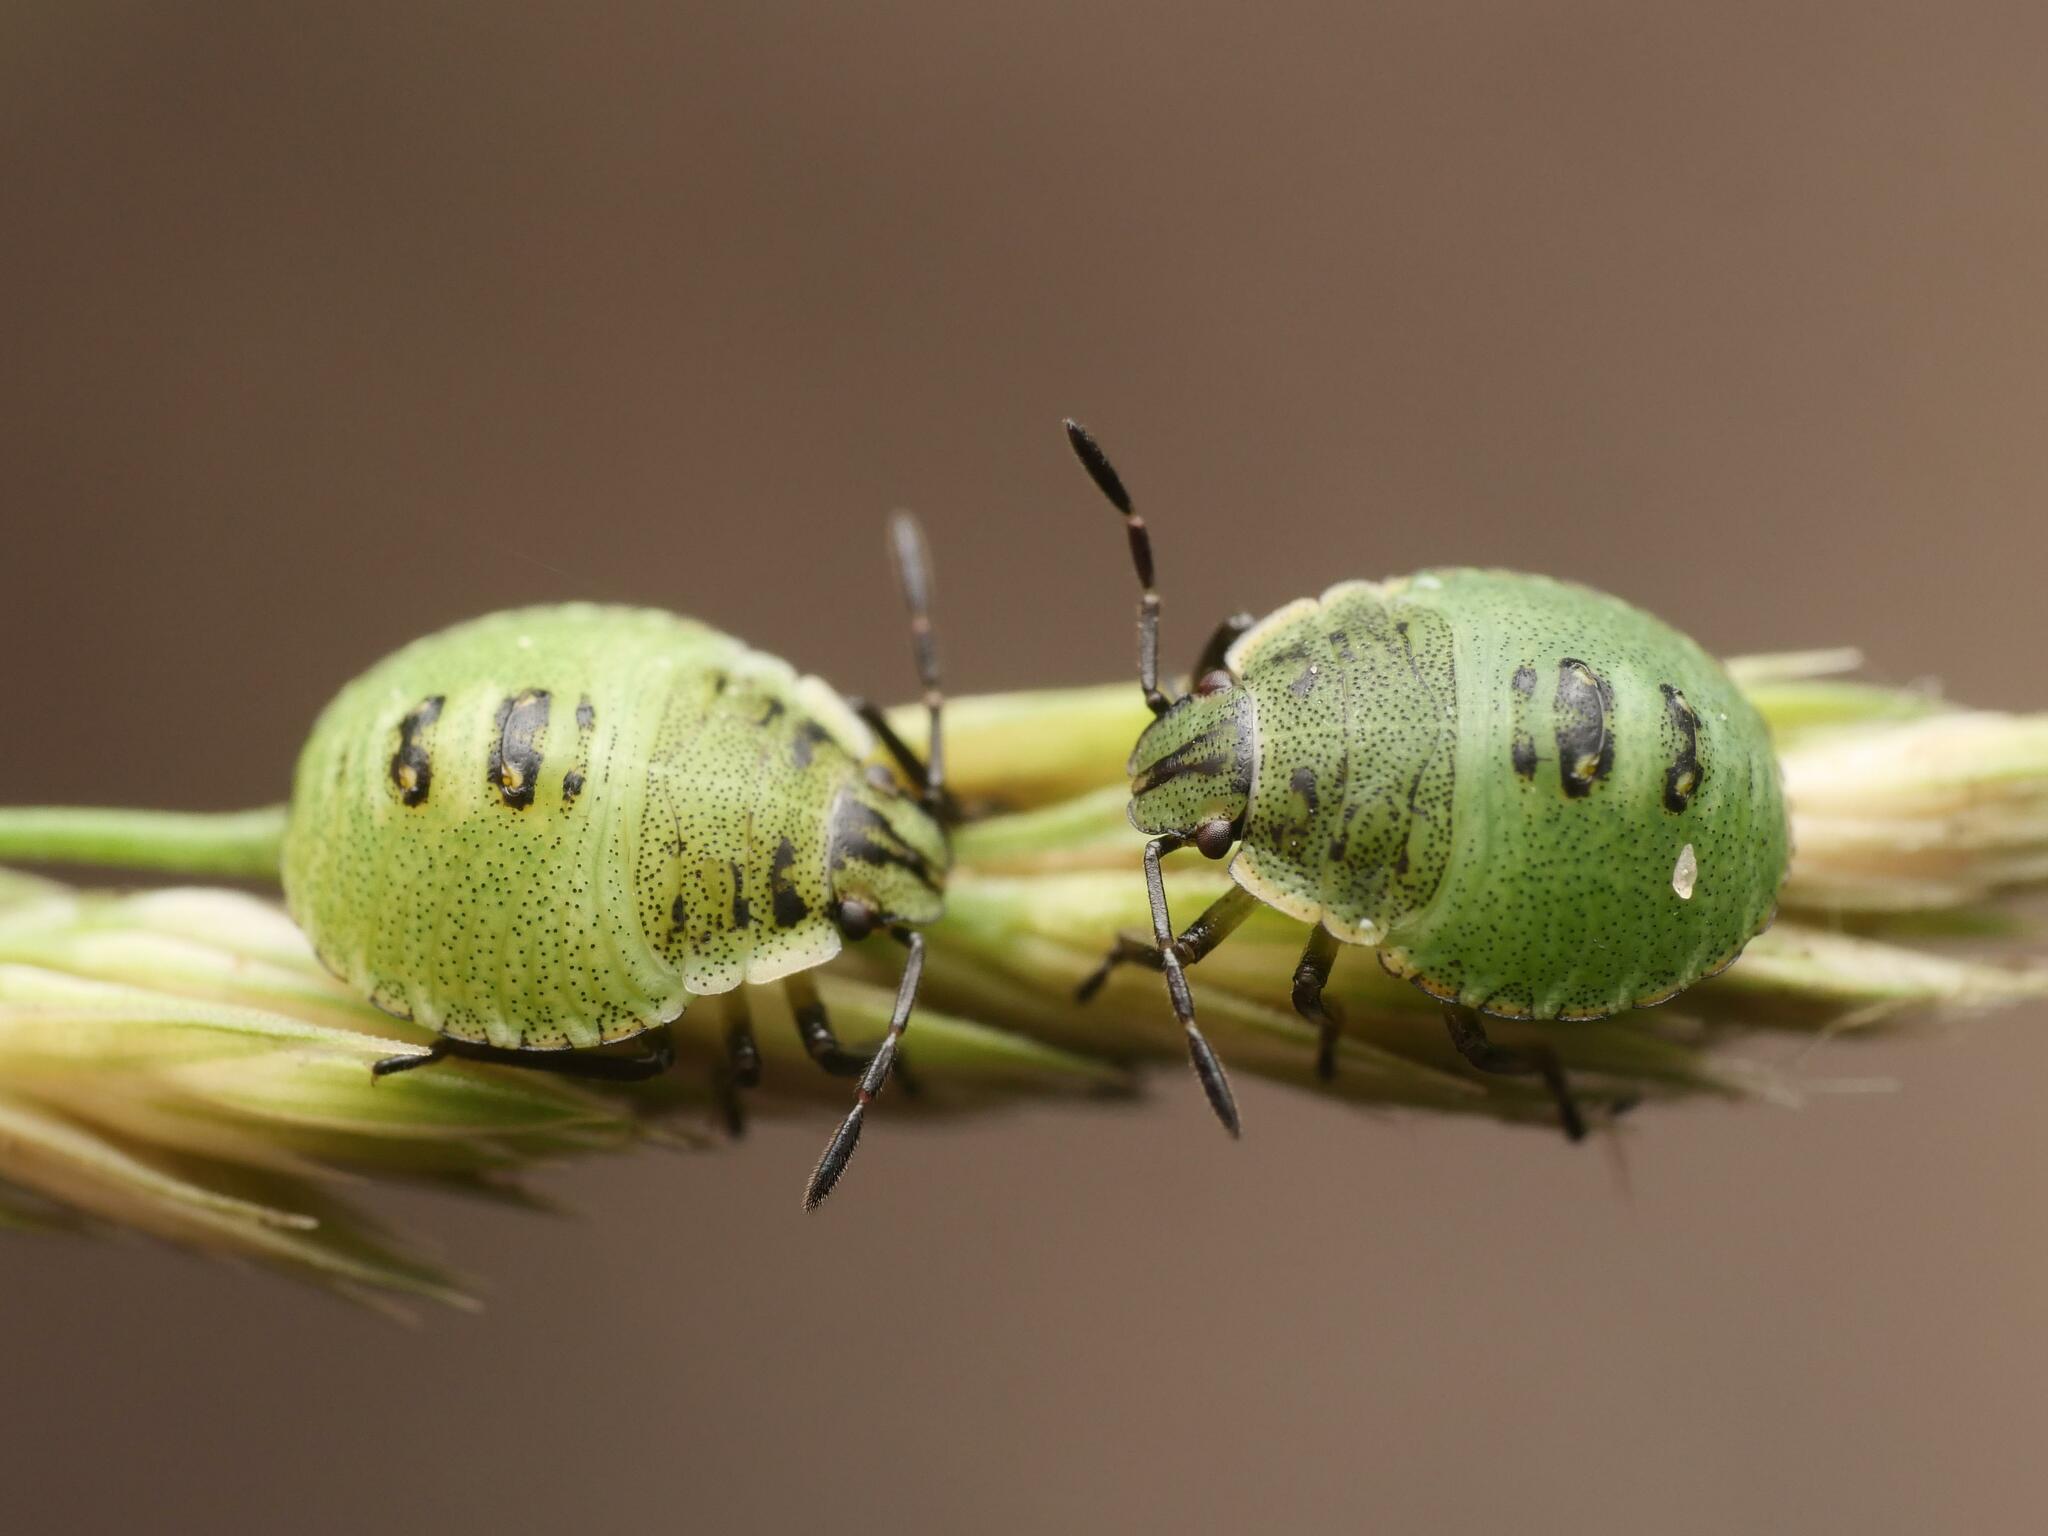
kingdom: Animalia
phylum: Arthropoda
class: Insecta
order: Hemiptera
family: Pentatomidae
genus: Palomena
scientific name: Palomena prasina
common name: Green shieldbug
